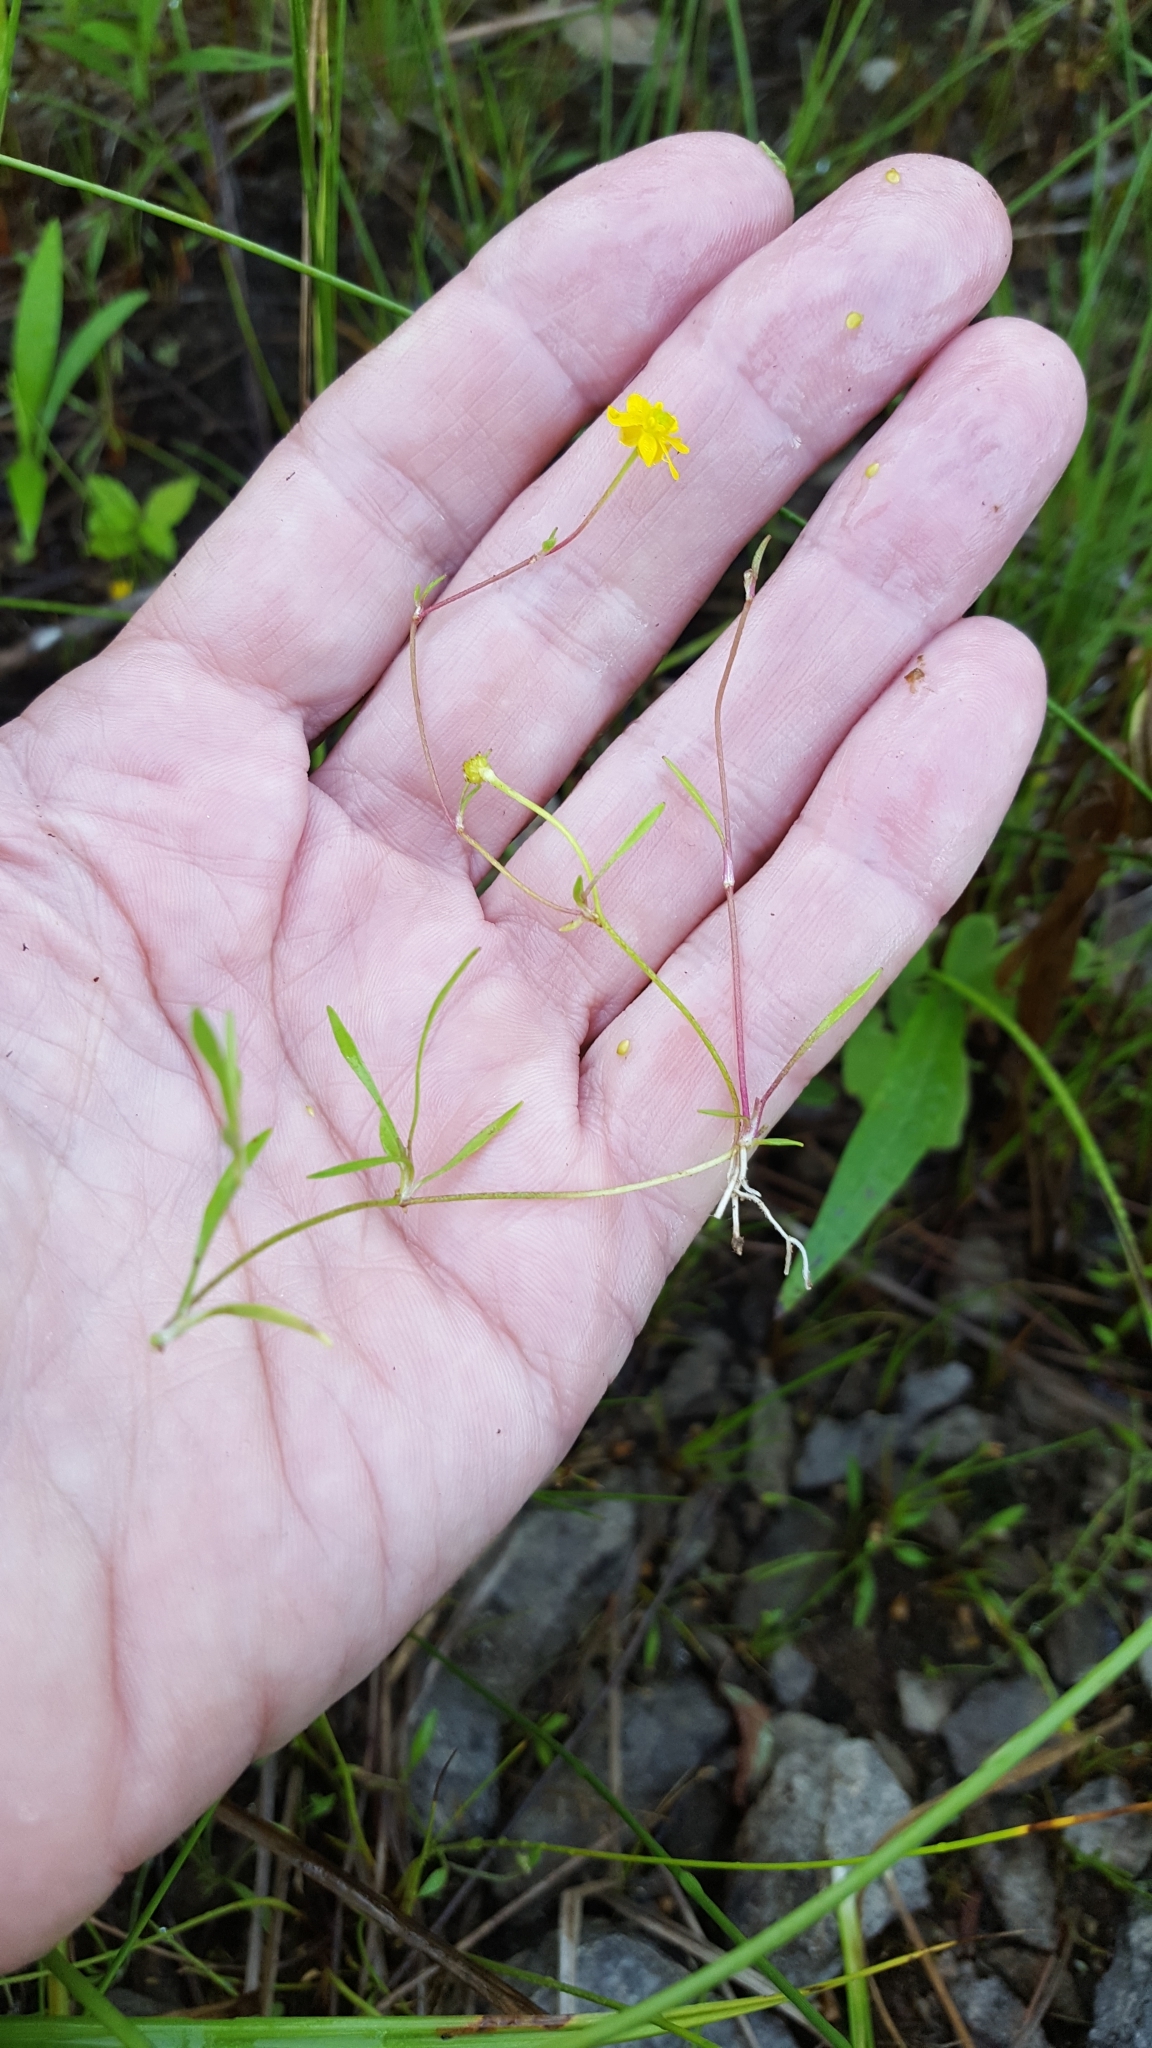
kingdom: Plantae
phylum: Tracheophyta
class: Magnoliopsida
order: Ranunculales
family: Ranunculaceae
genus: Ranunculus
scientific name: Ranunculus flammula
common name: Lesser spearwort
